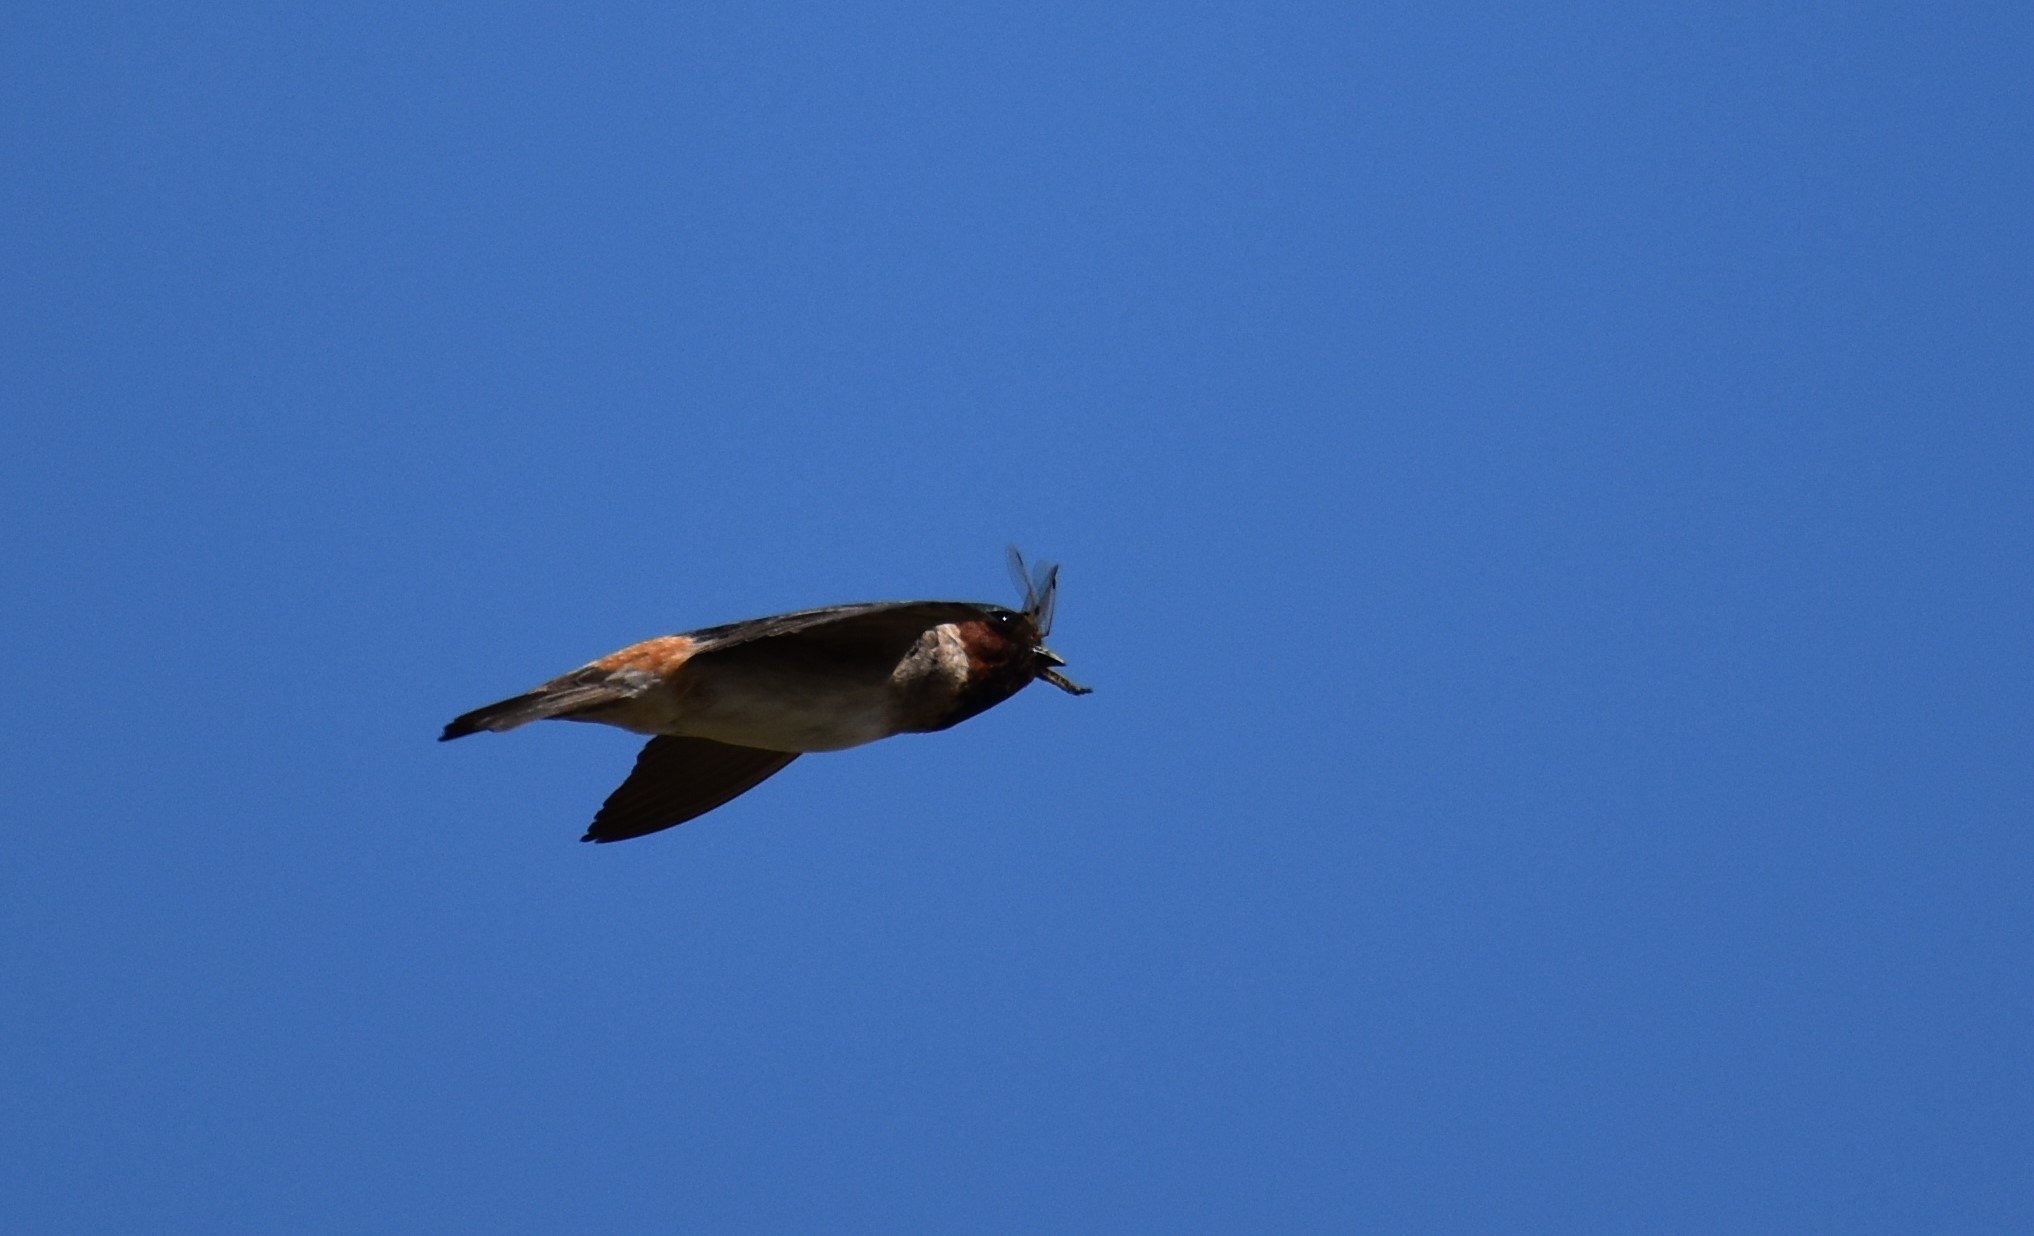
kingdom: Animalia
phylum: Chordata
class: Aves
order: Passeriformes
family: Hirundinidae
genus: Petrochelidon
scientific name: Petrochelidon pyrrhonota
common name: American cliff swallow
